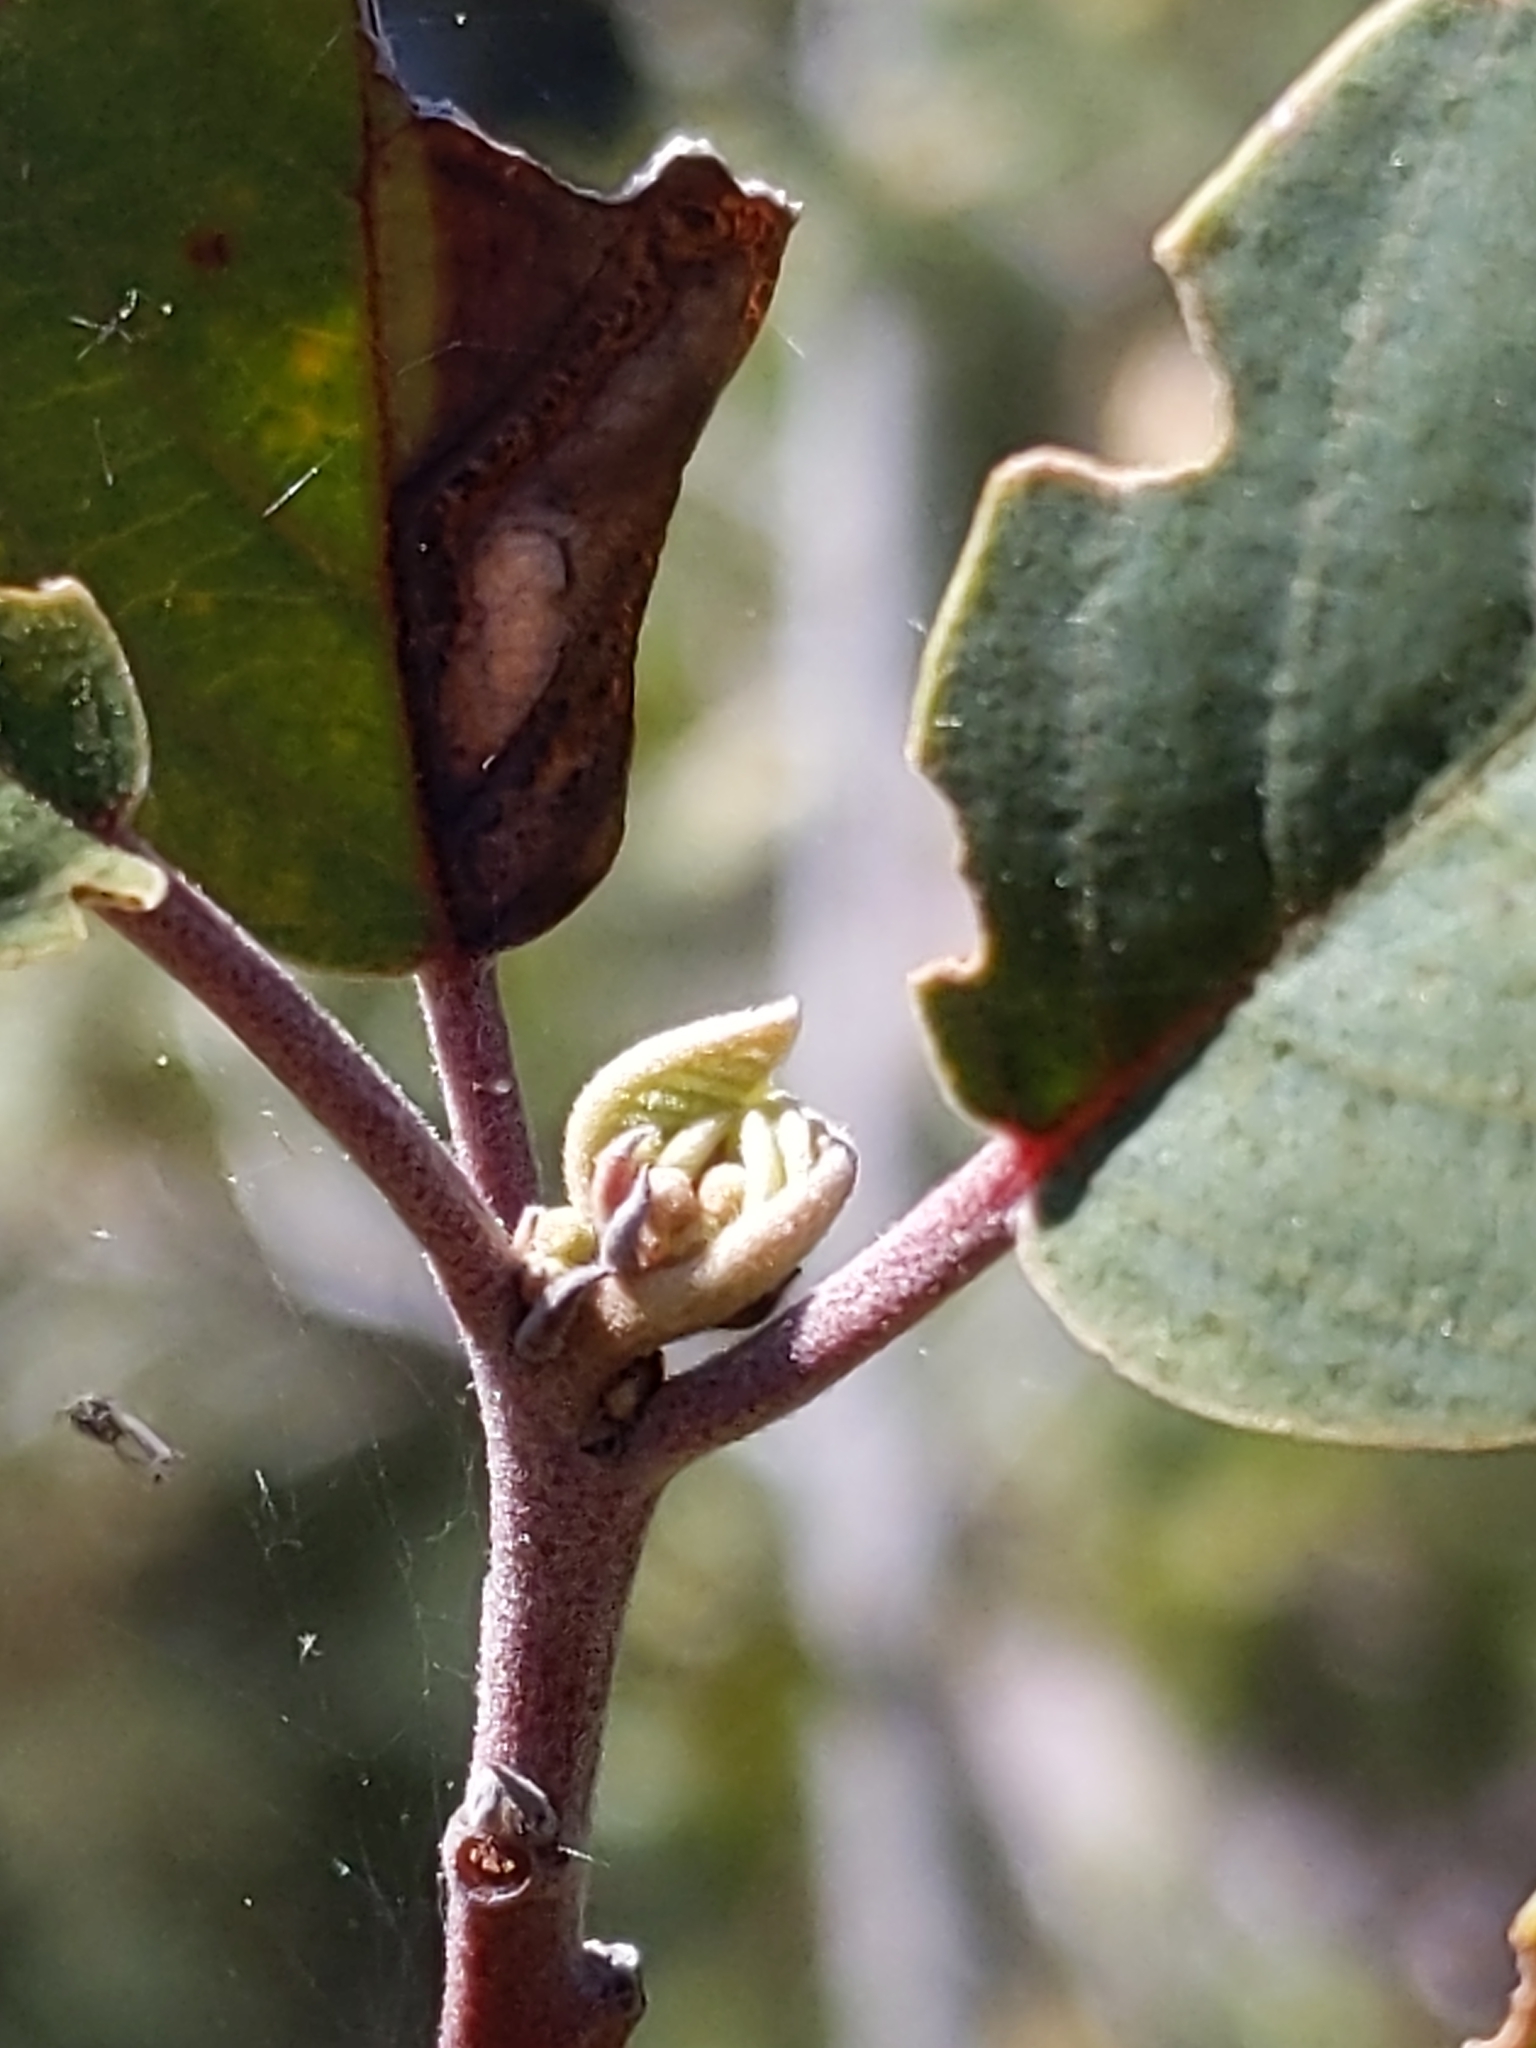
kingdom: Plantae
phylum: Tracheophyta
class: Magnoliopsida
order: Rosales
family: Rhamnaceae
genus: Frangula
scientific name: Frangula californica
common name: California buckthorn
